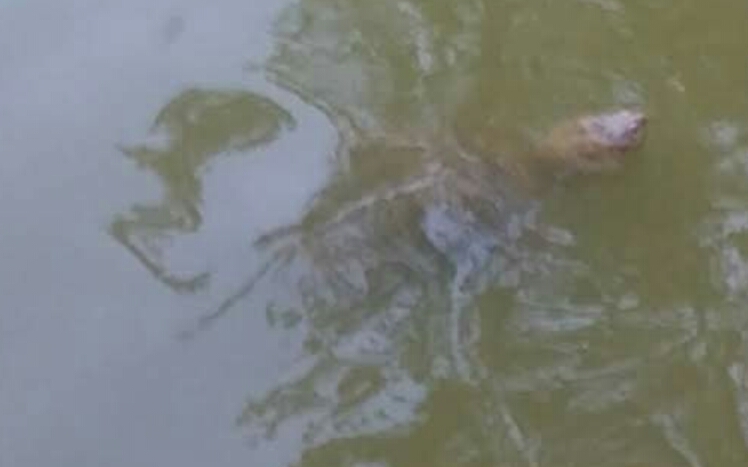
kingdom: Animalia
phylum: Chordata
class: Testudines
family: Chelydridae
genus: Chelydra
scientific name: Chelydra serpentina
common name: Common snapping turtle
